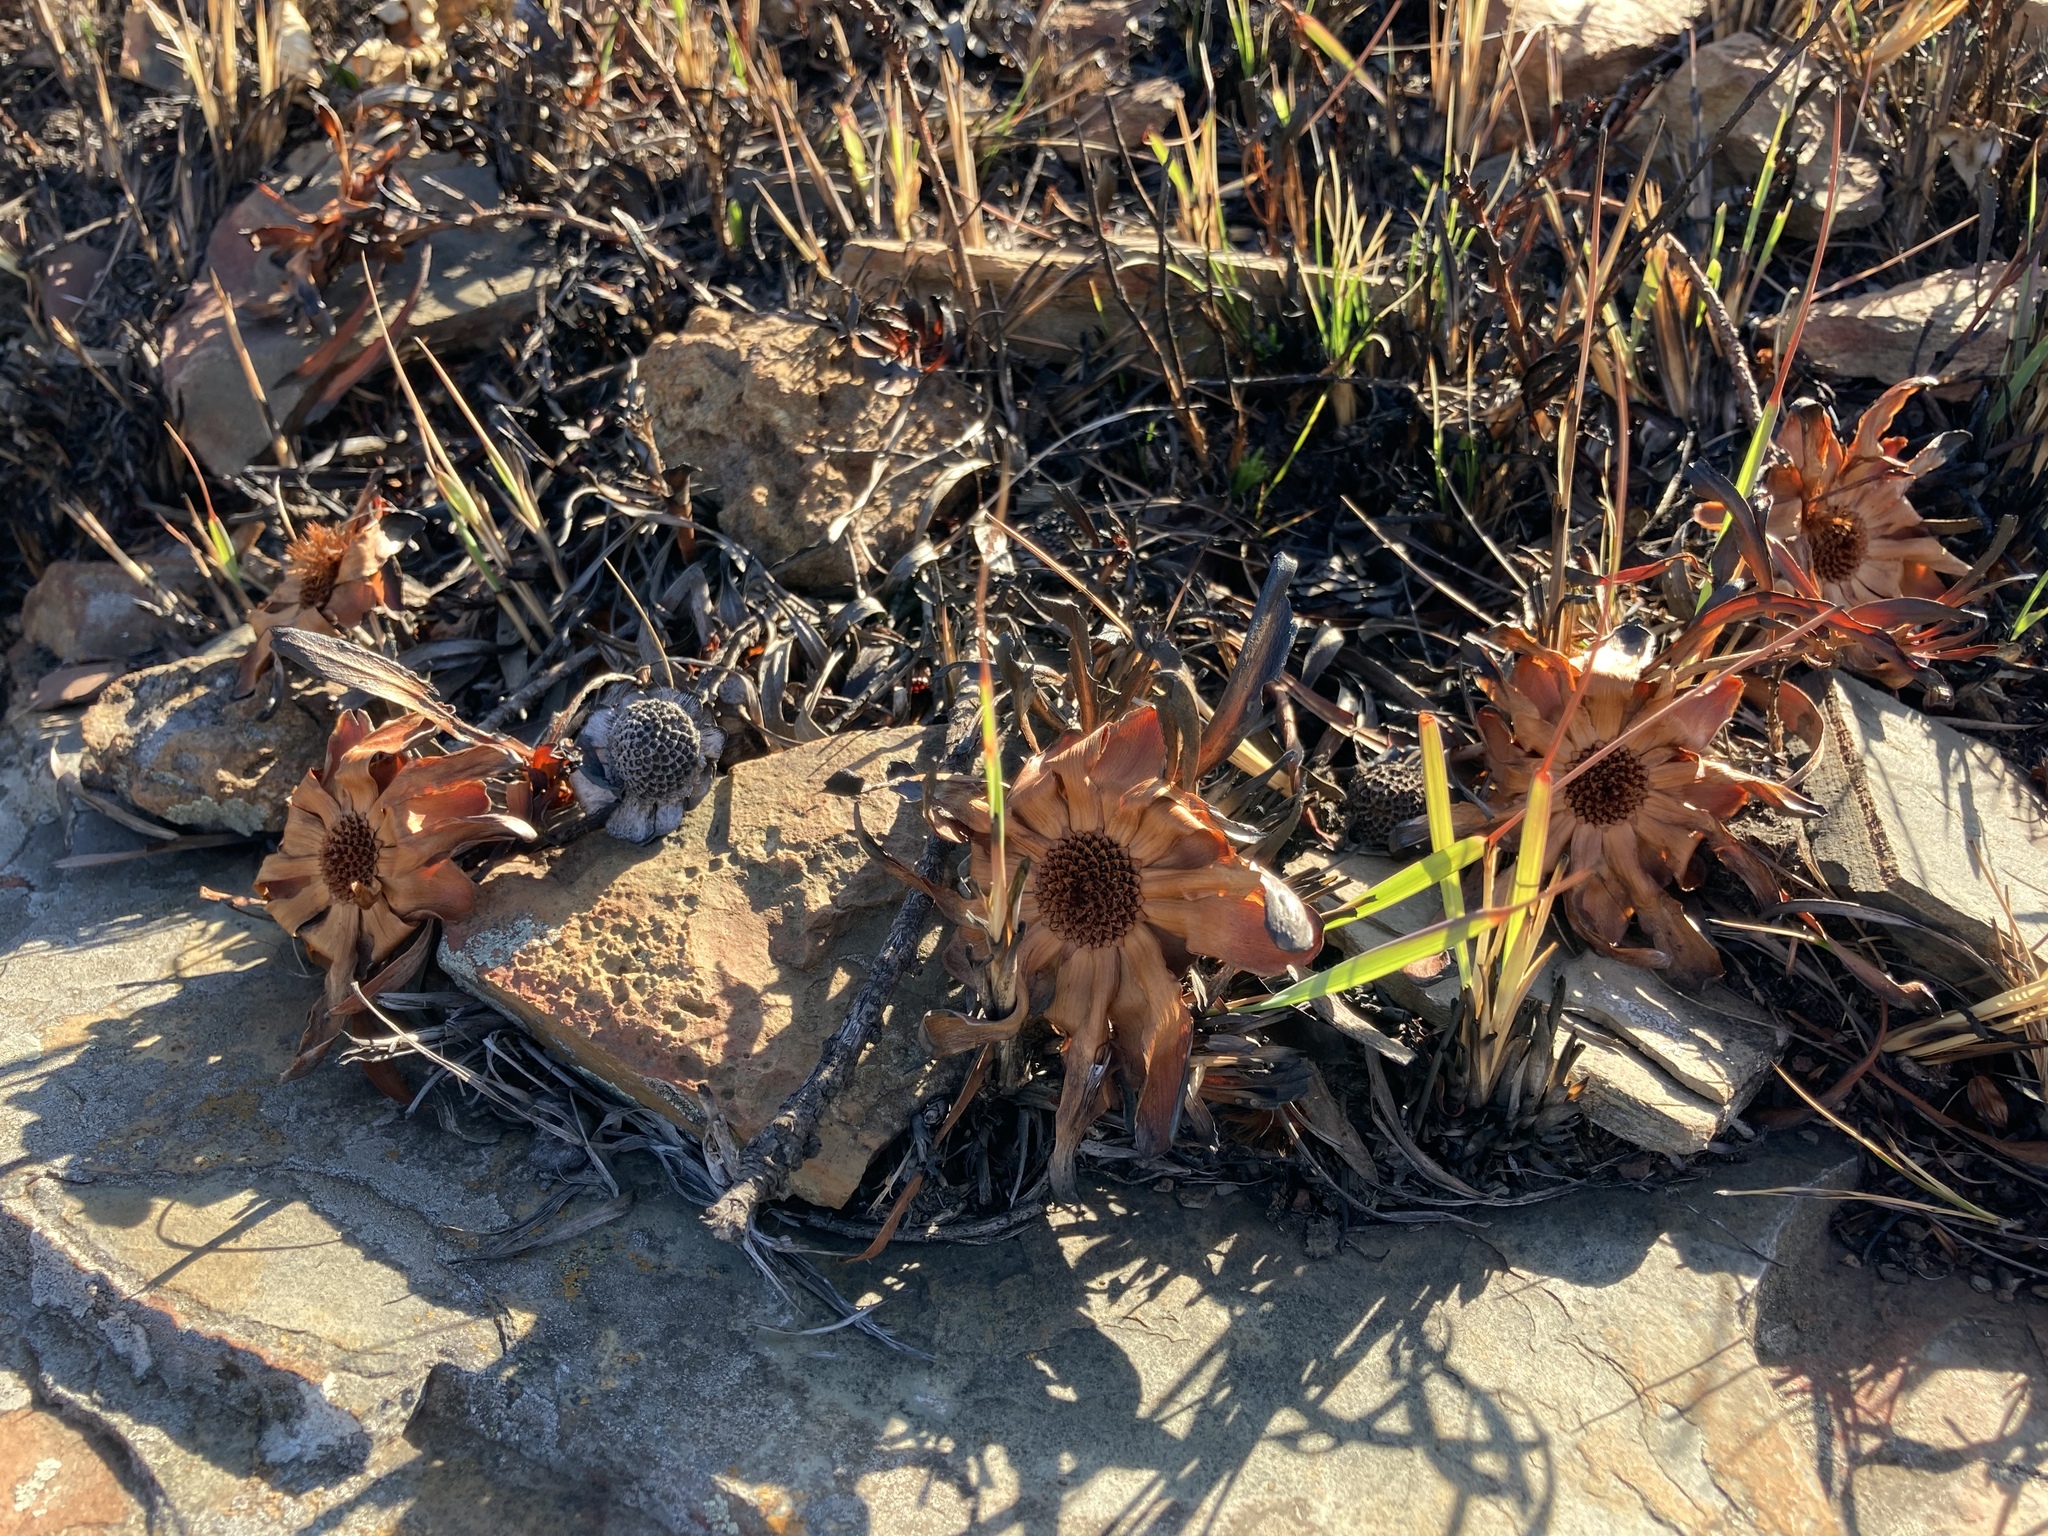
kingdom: Plantae
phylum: Tracheophyta
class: Magnoliopsida
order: Proteales
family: Proteaceae
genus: Protea
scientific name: Protea parvula
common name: Dainty sugarbush
